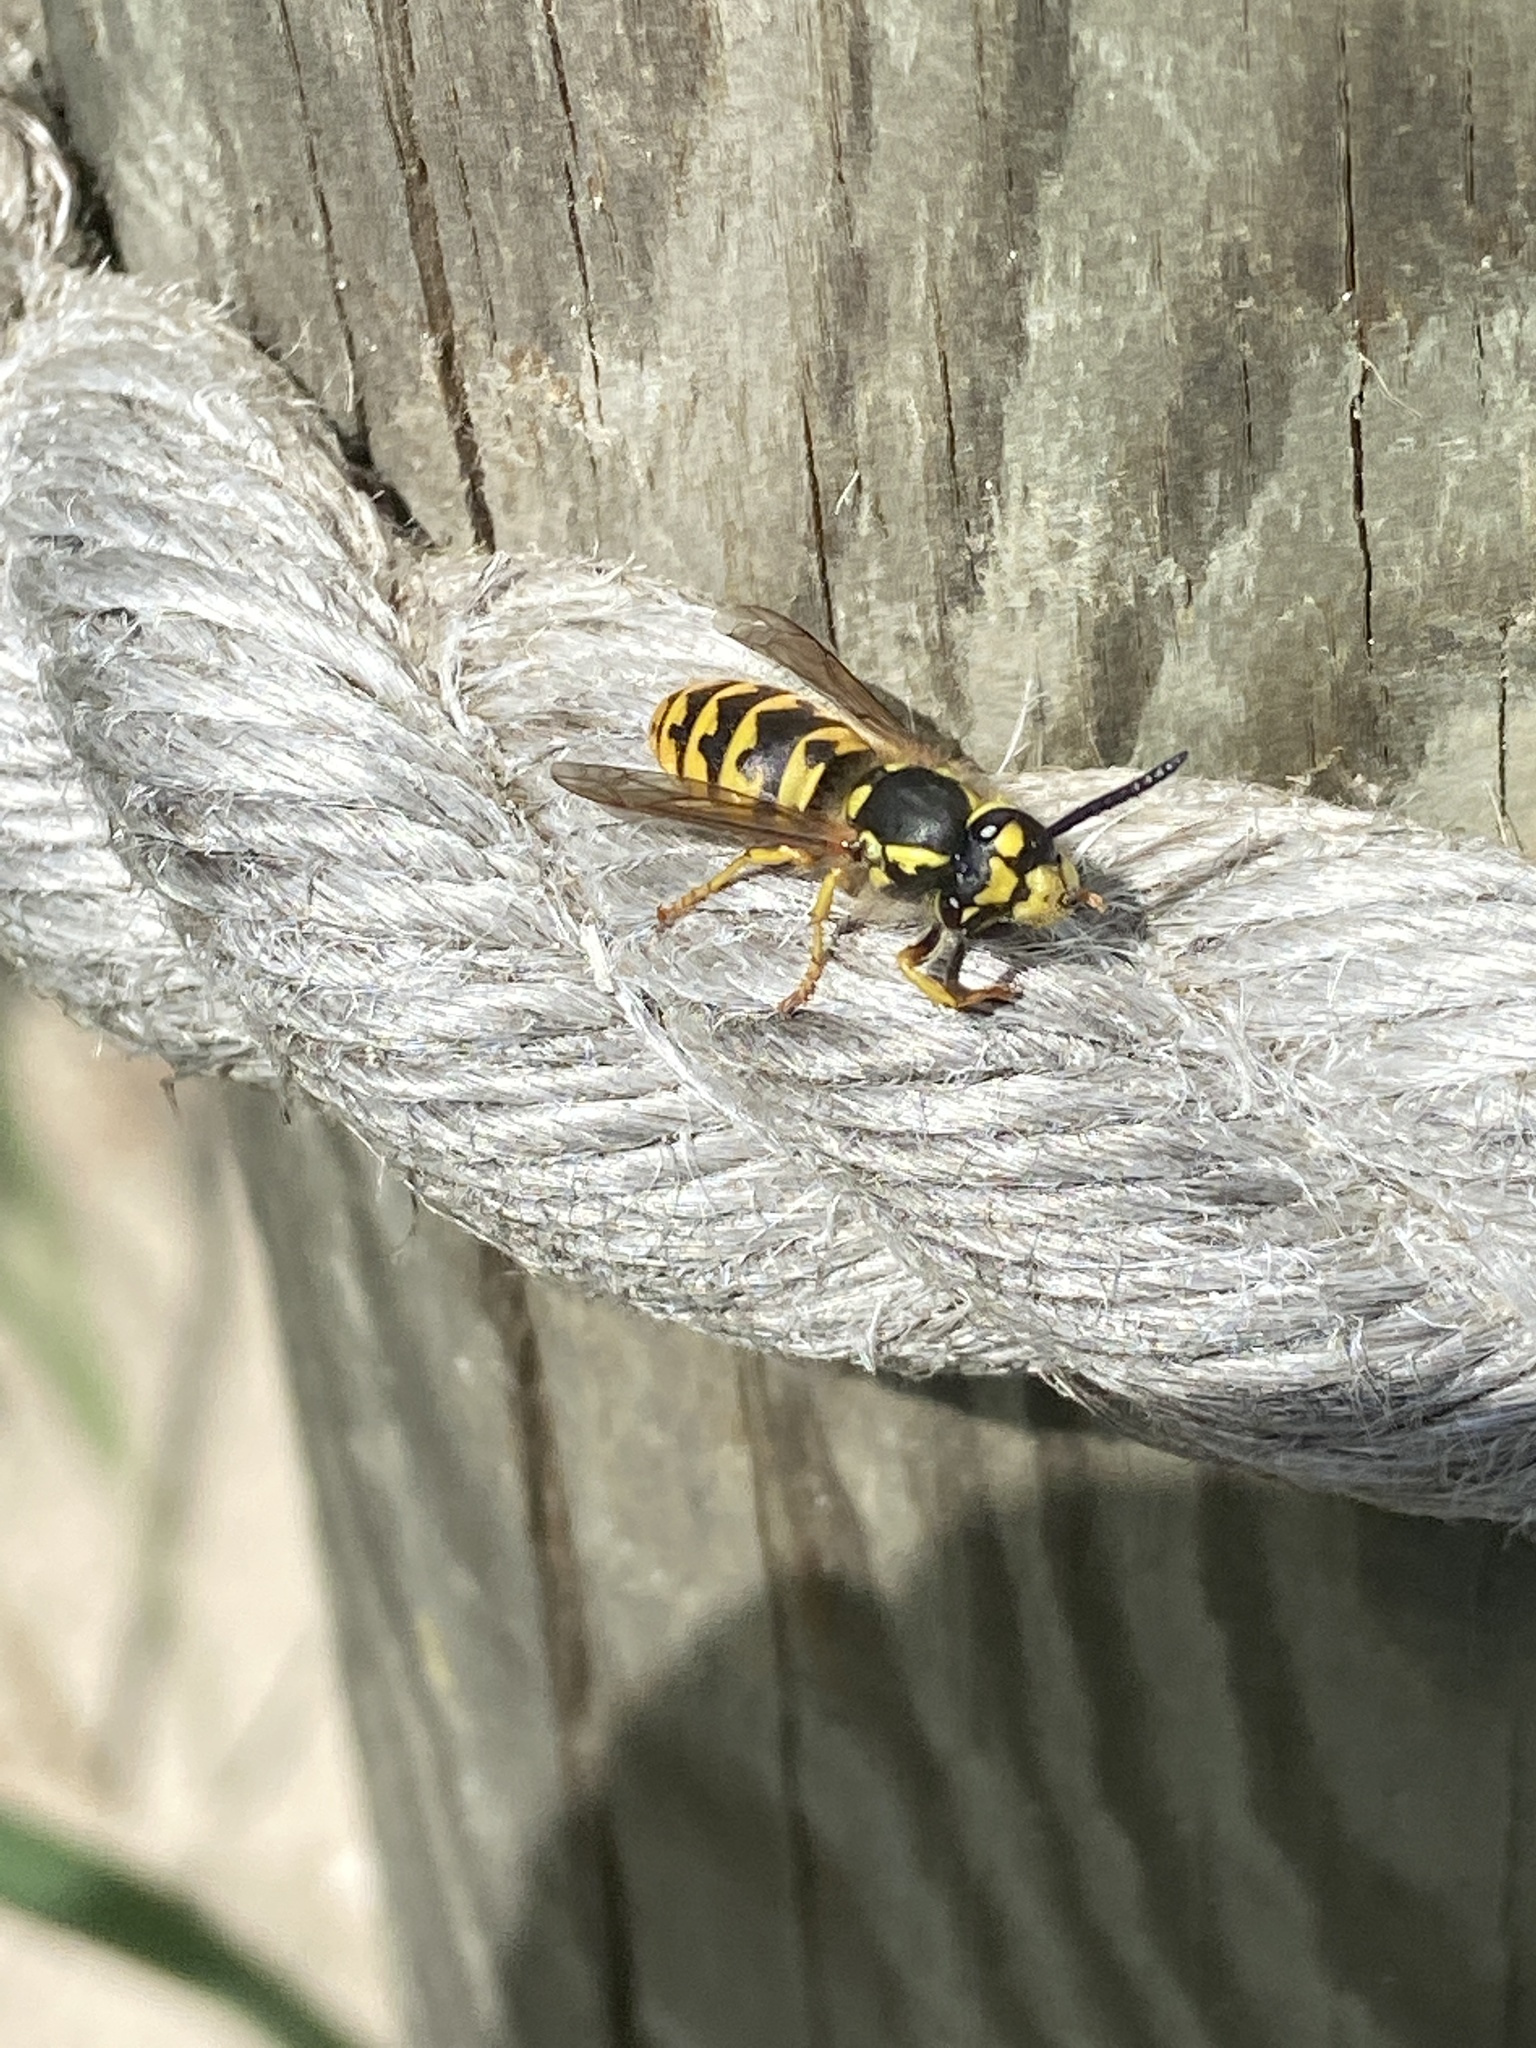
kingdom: Animalia
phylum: Arthropoda
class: Insecta
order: Hymenoptera
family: Vespidae
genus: Vespula
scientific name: Vespula germanica
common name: German wasp
